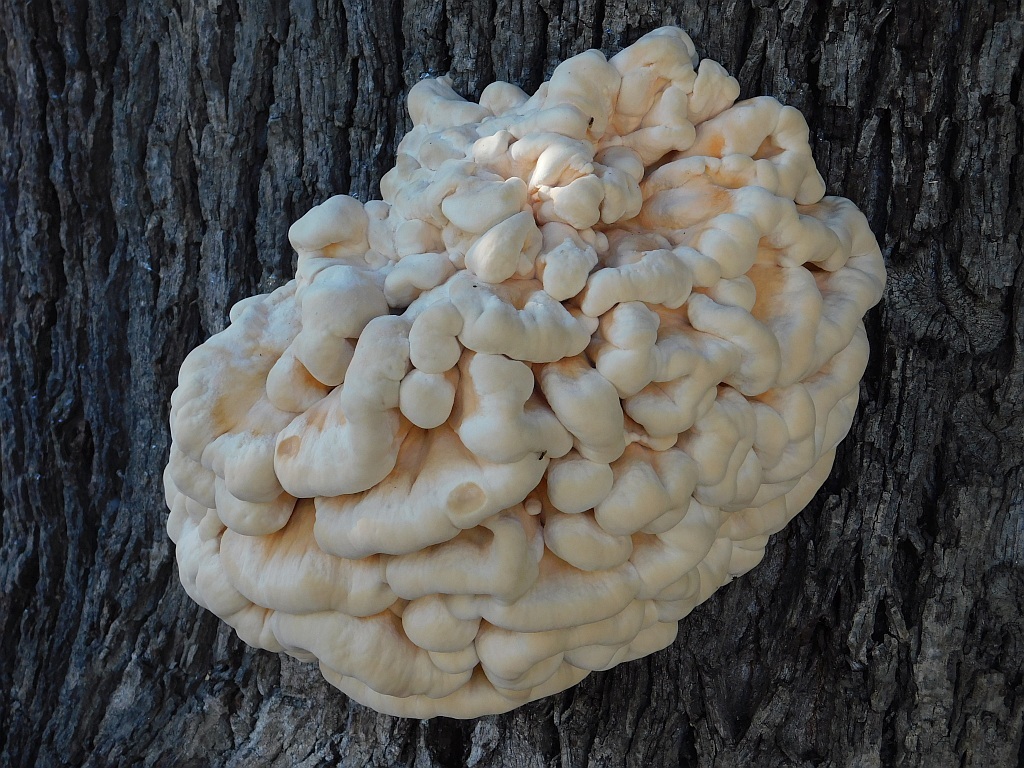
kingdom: Fungi
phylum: Basidiomycota
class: Agaricomycetes
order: Polyporales
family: Laetiporaceae
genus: Laetiporus
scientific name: Laetiporus sulphureus
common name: Chicken of the woods
